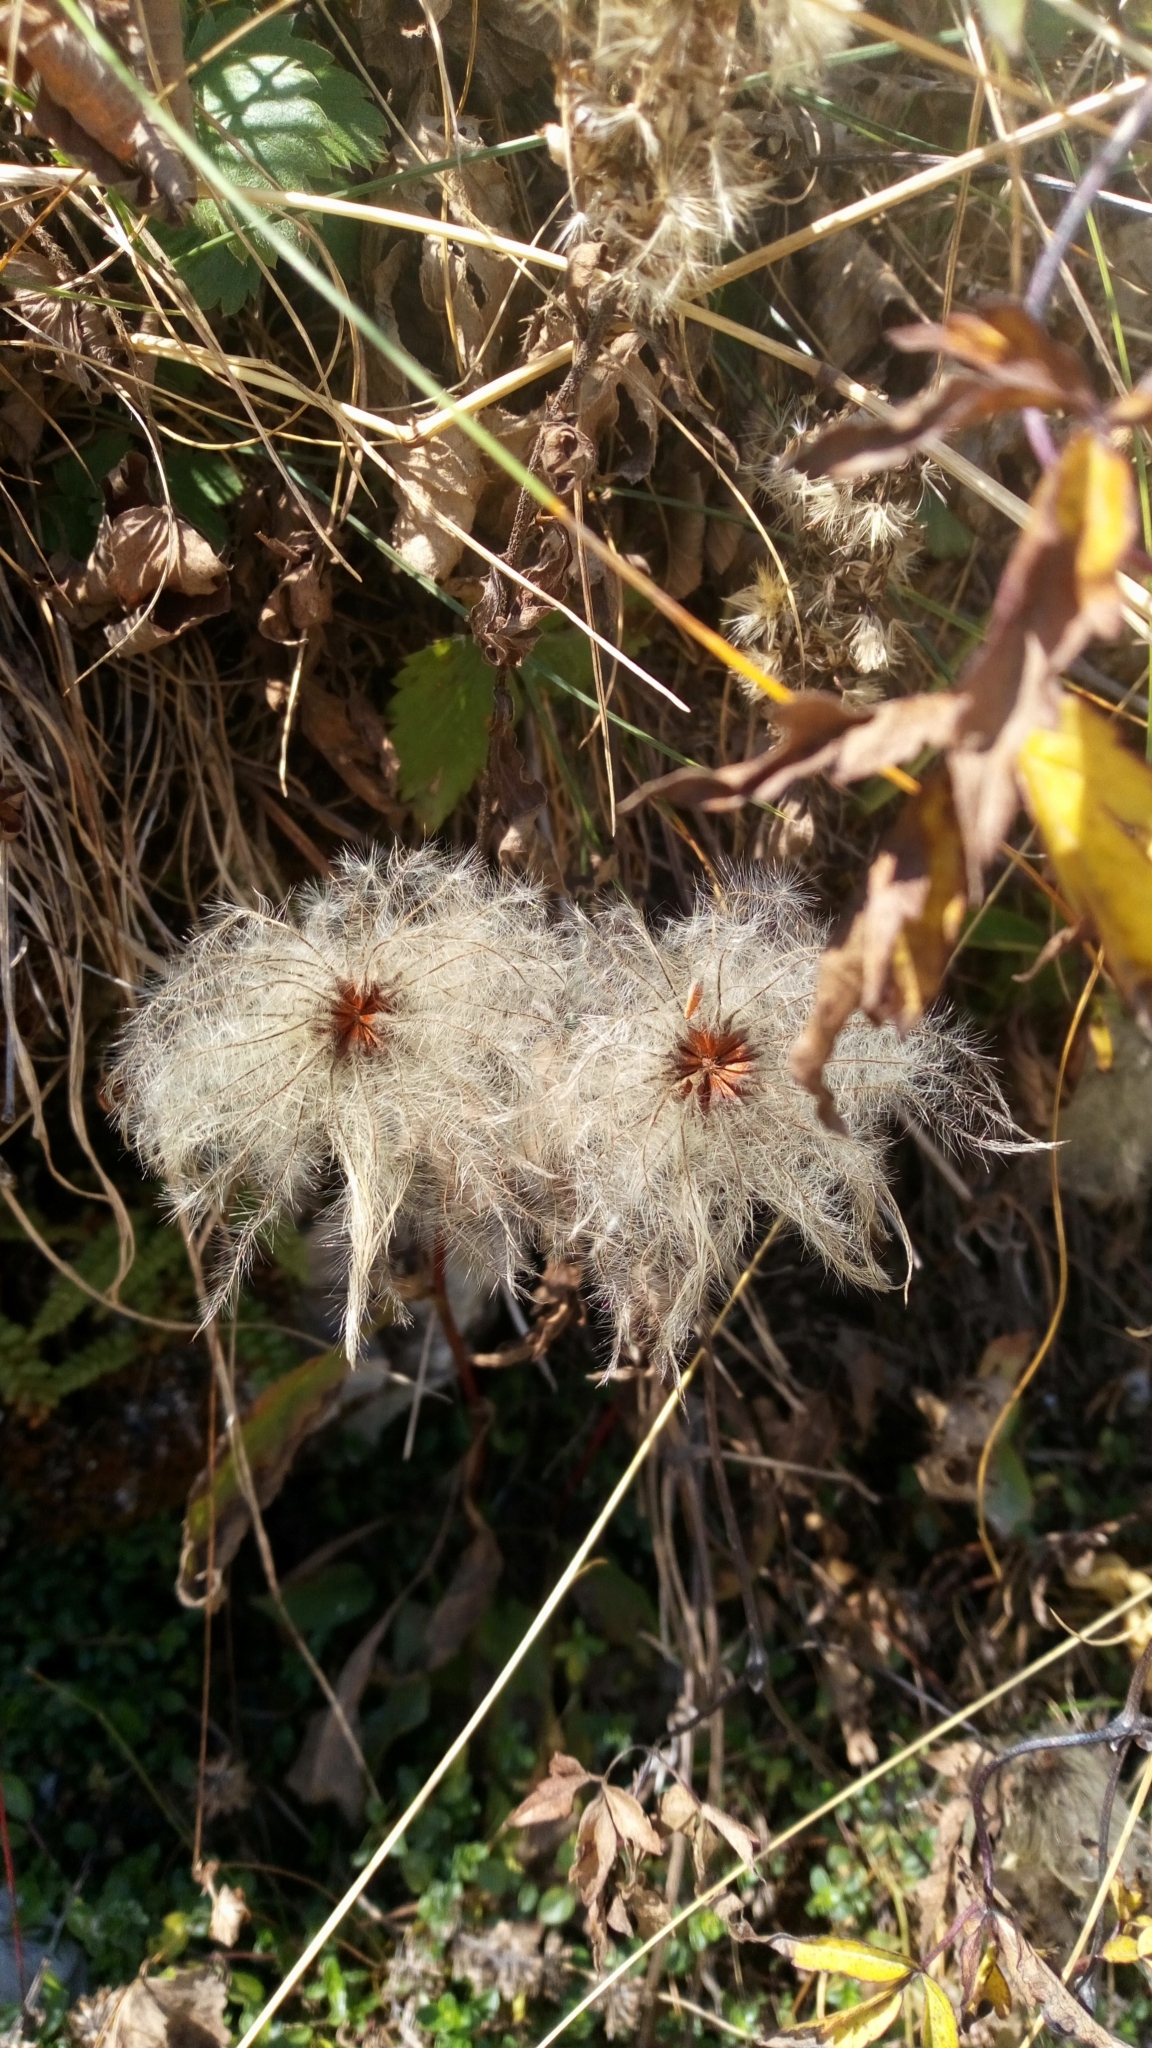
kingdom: Plantae
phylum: Tracheophyta
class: Magnoliopsida
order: Ranunculales
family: Ranunculaceae
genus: Clematis
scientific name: Clematis alpina
